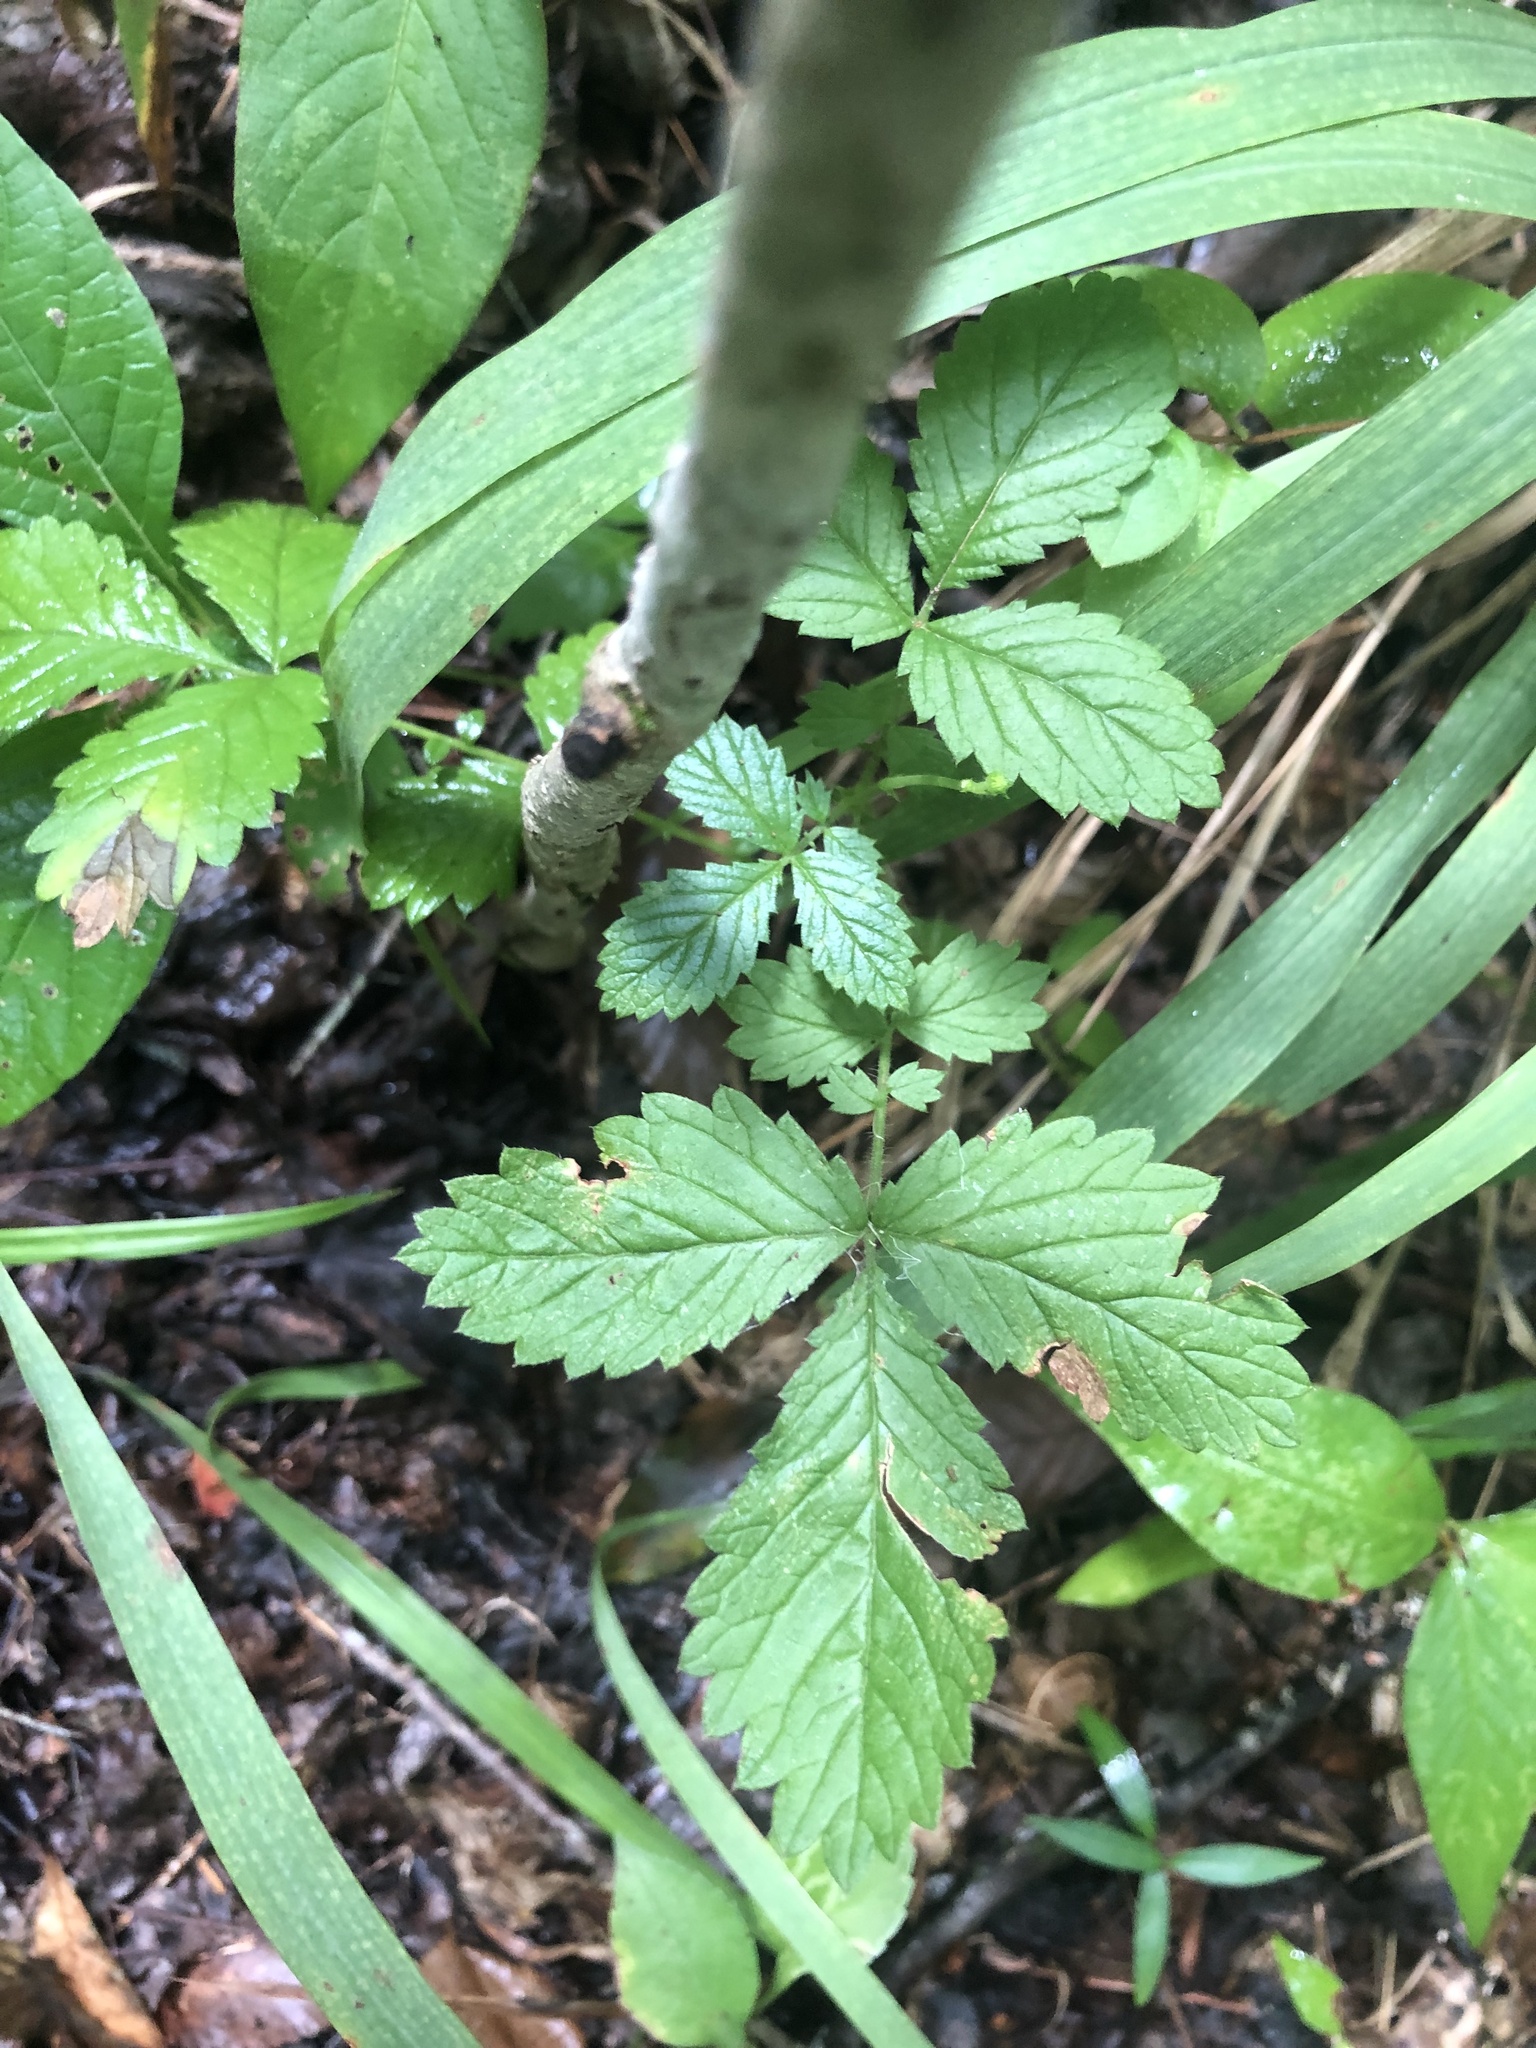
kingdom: Plantae
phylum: Tracheophyta
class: Magnoliopsida
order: Rosales
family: Rosaceae
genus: Agrimonia
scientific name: Agrimonia rostellata
